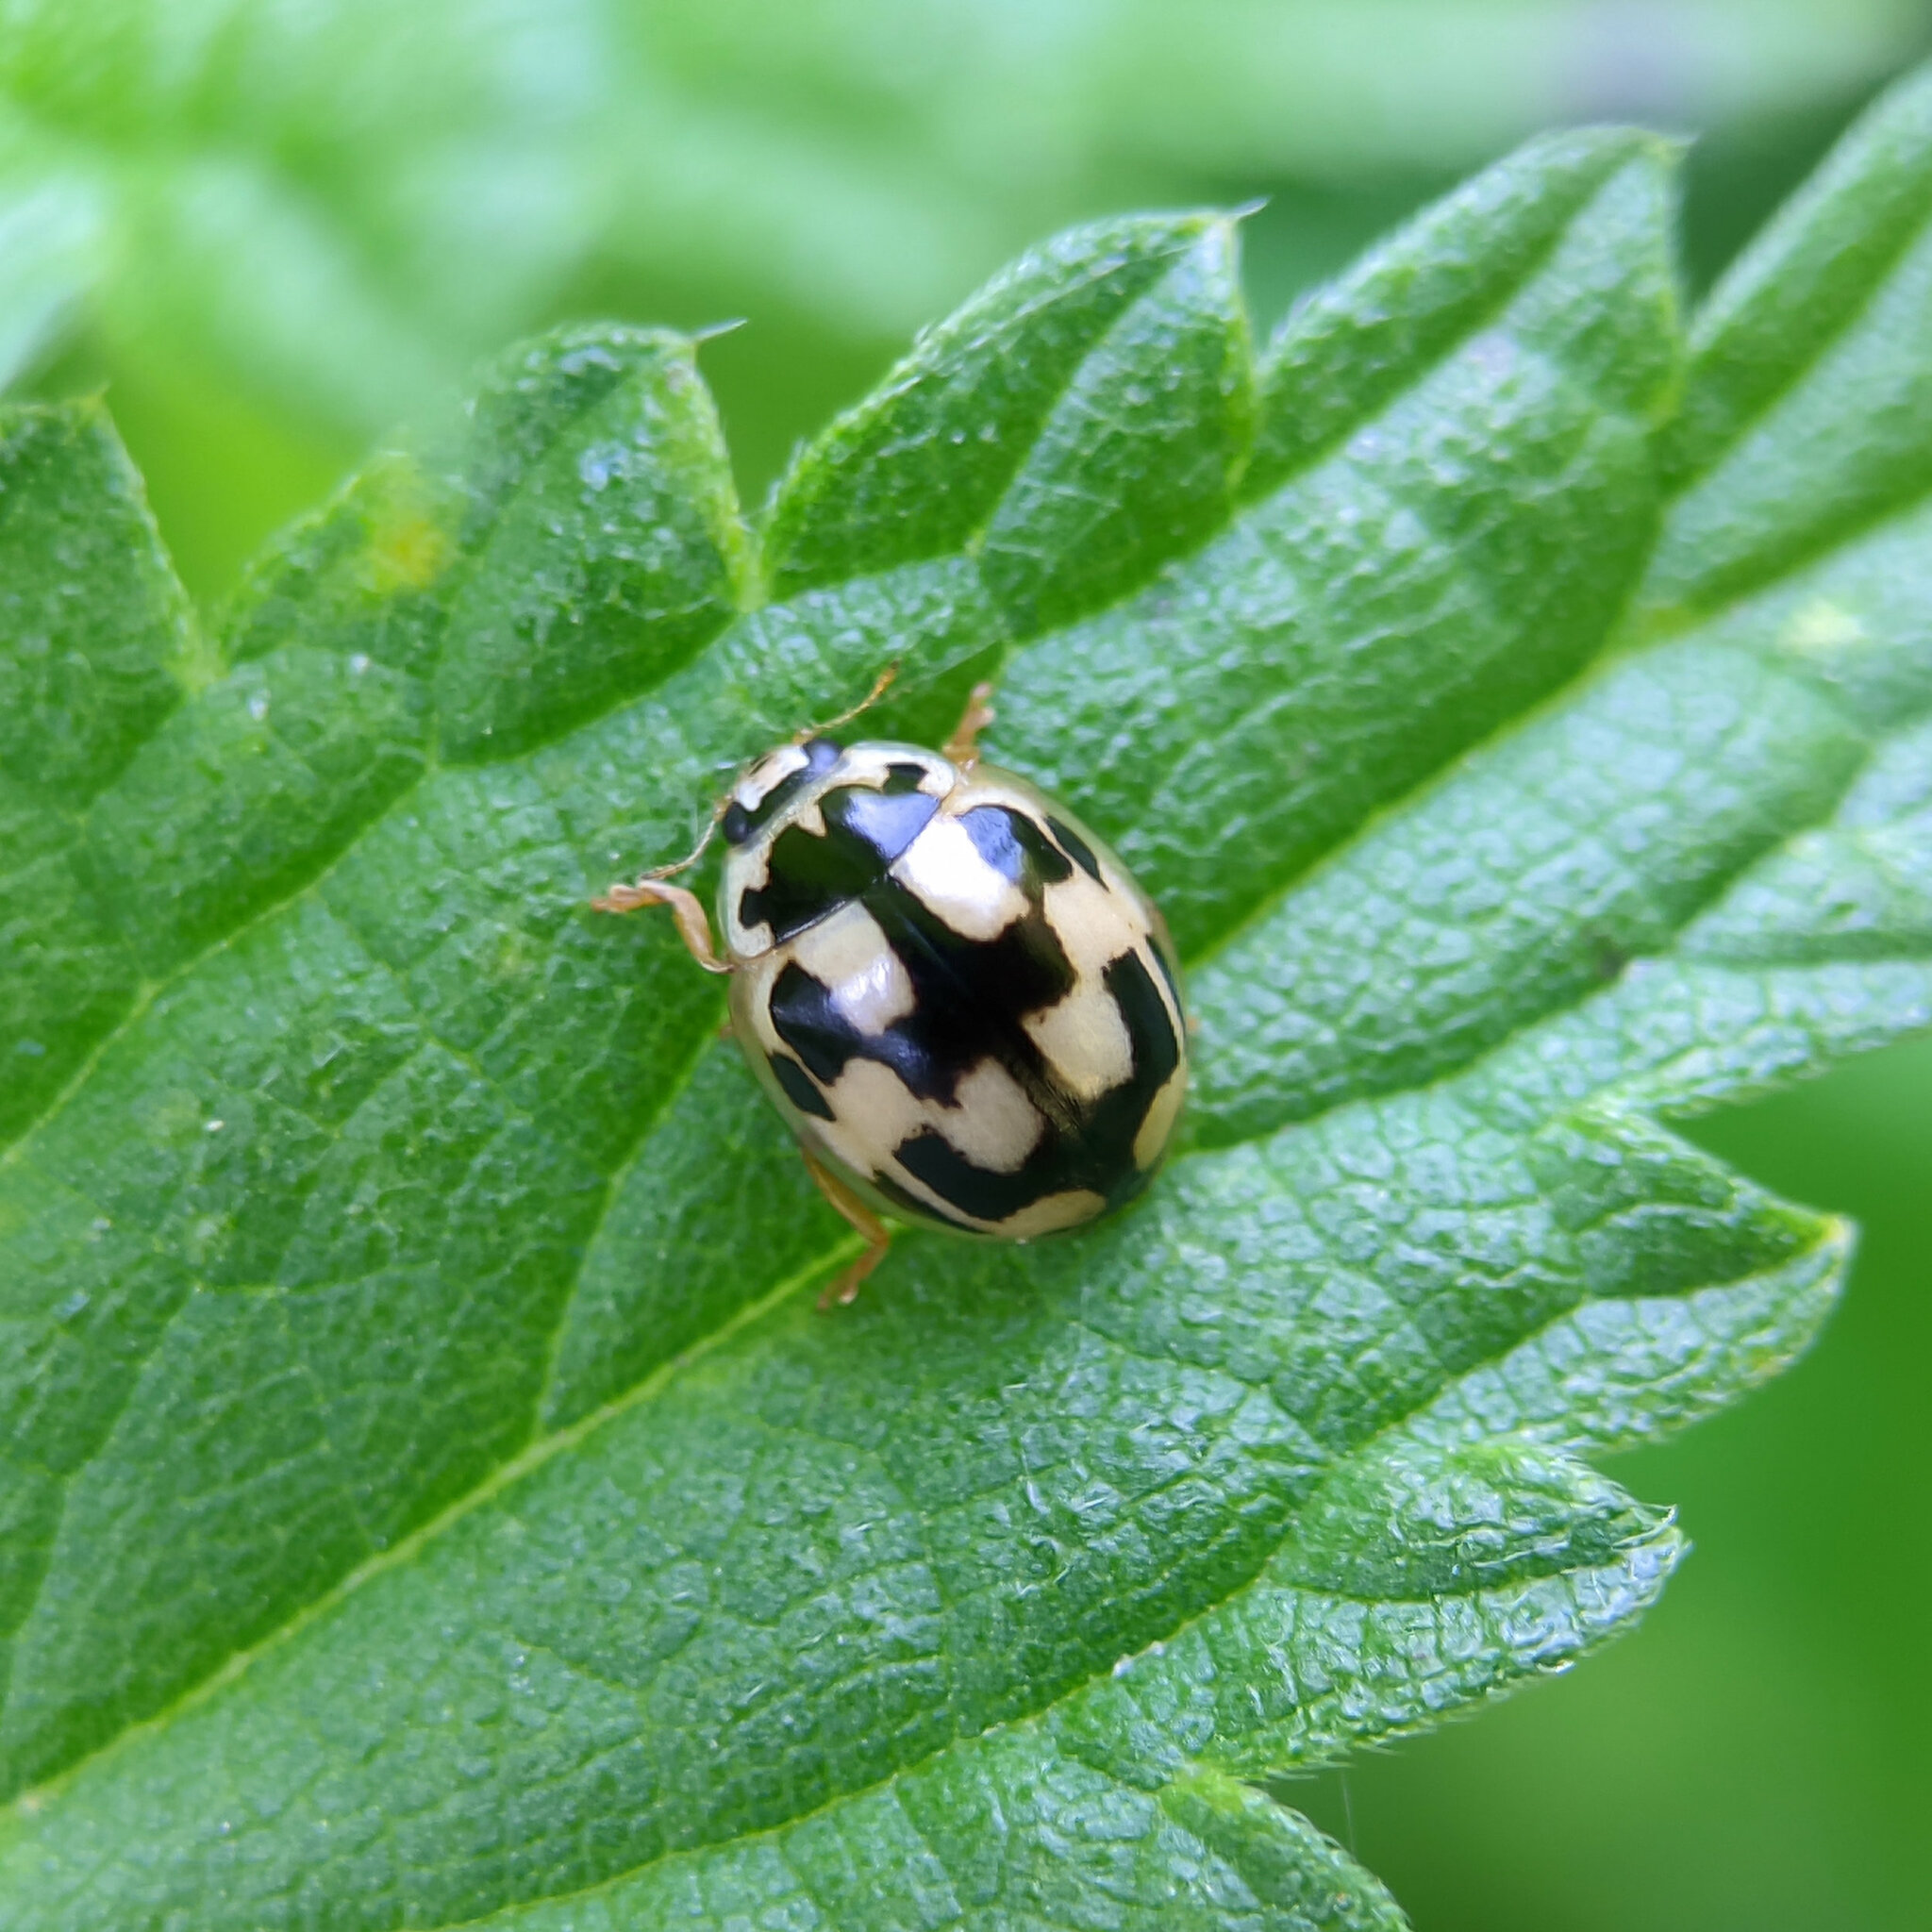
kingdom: Animalia
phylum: Arthropoda
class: Insecta
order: Coleoptera
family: Coccinellidae
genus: Propylaea
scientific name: Propylaea quatuordecimpunctata
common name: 14-spotted ladybird beetle
